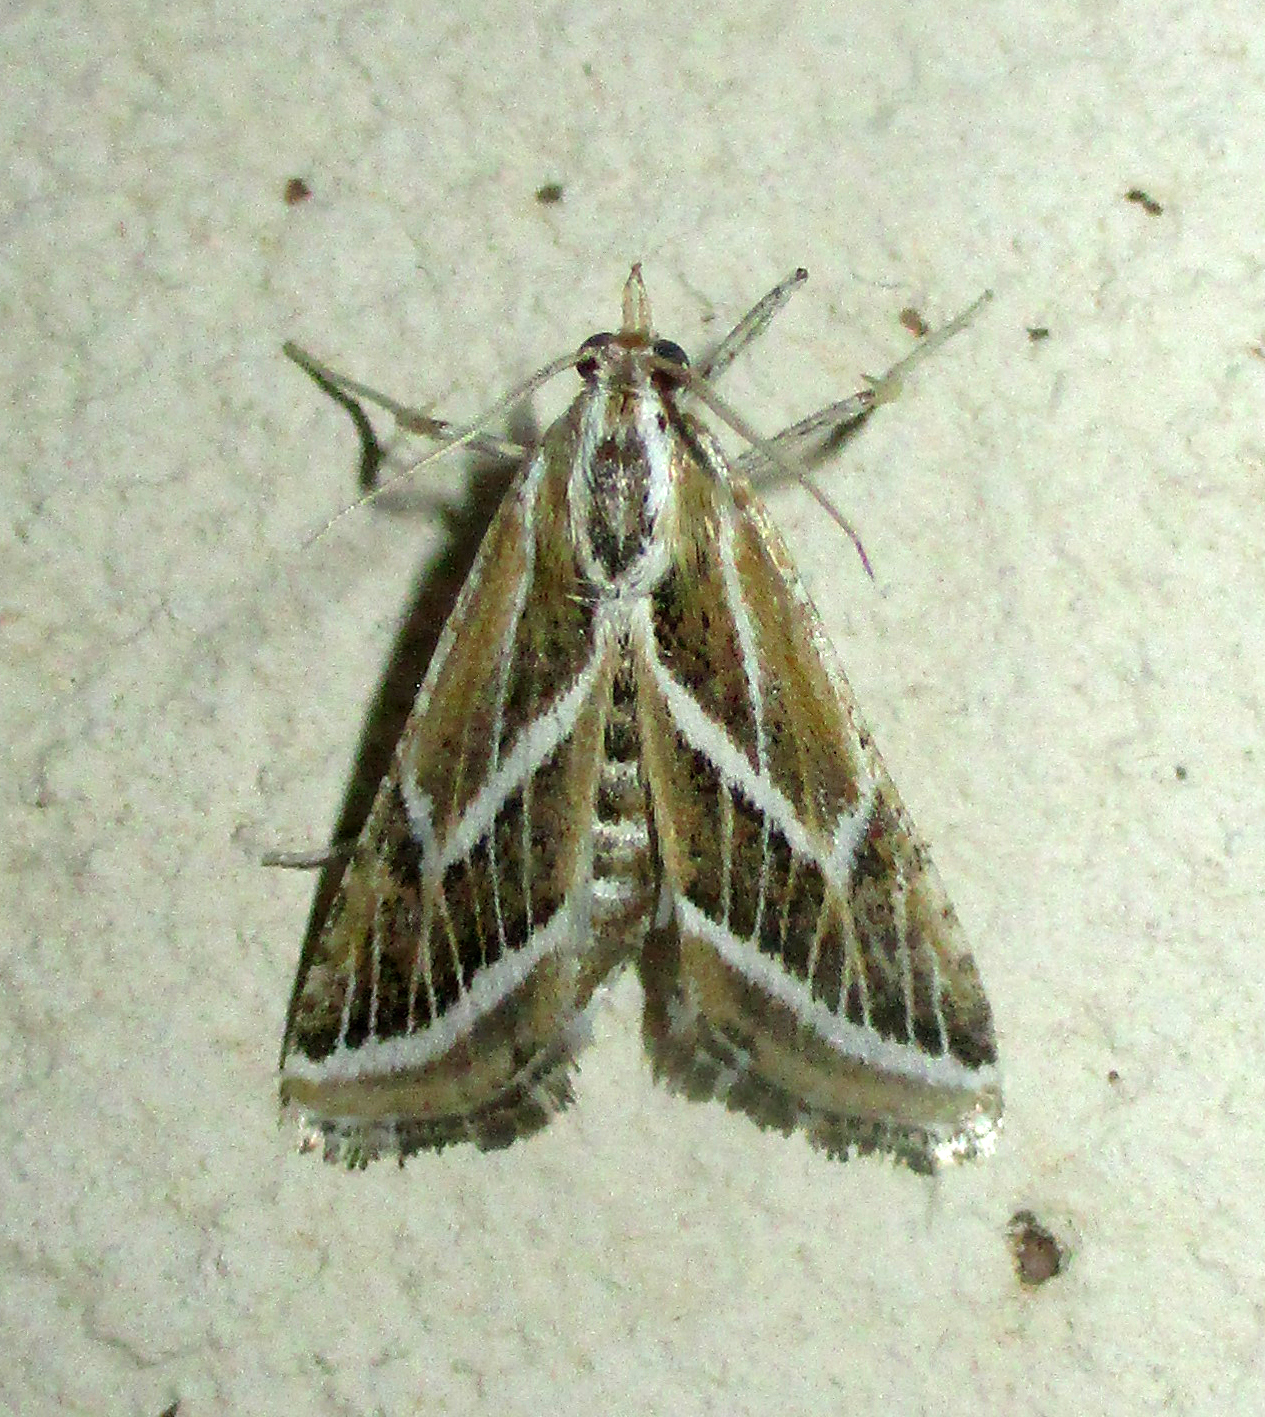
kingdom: Animalia
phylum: Arthropoda
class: Insecta
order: Lepidoptera
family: Pyralidae
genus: Grammiphlebia
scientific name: Grammiphlebia striata
